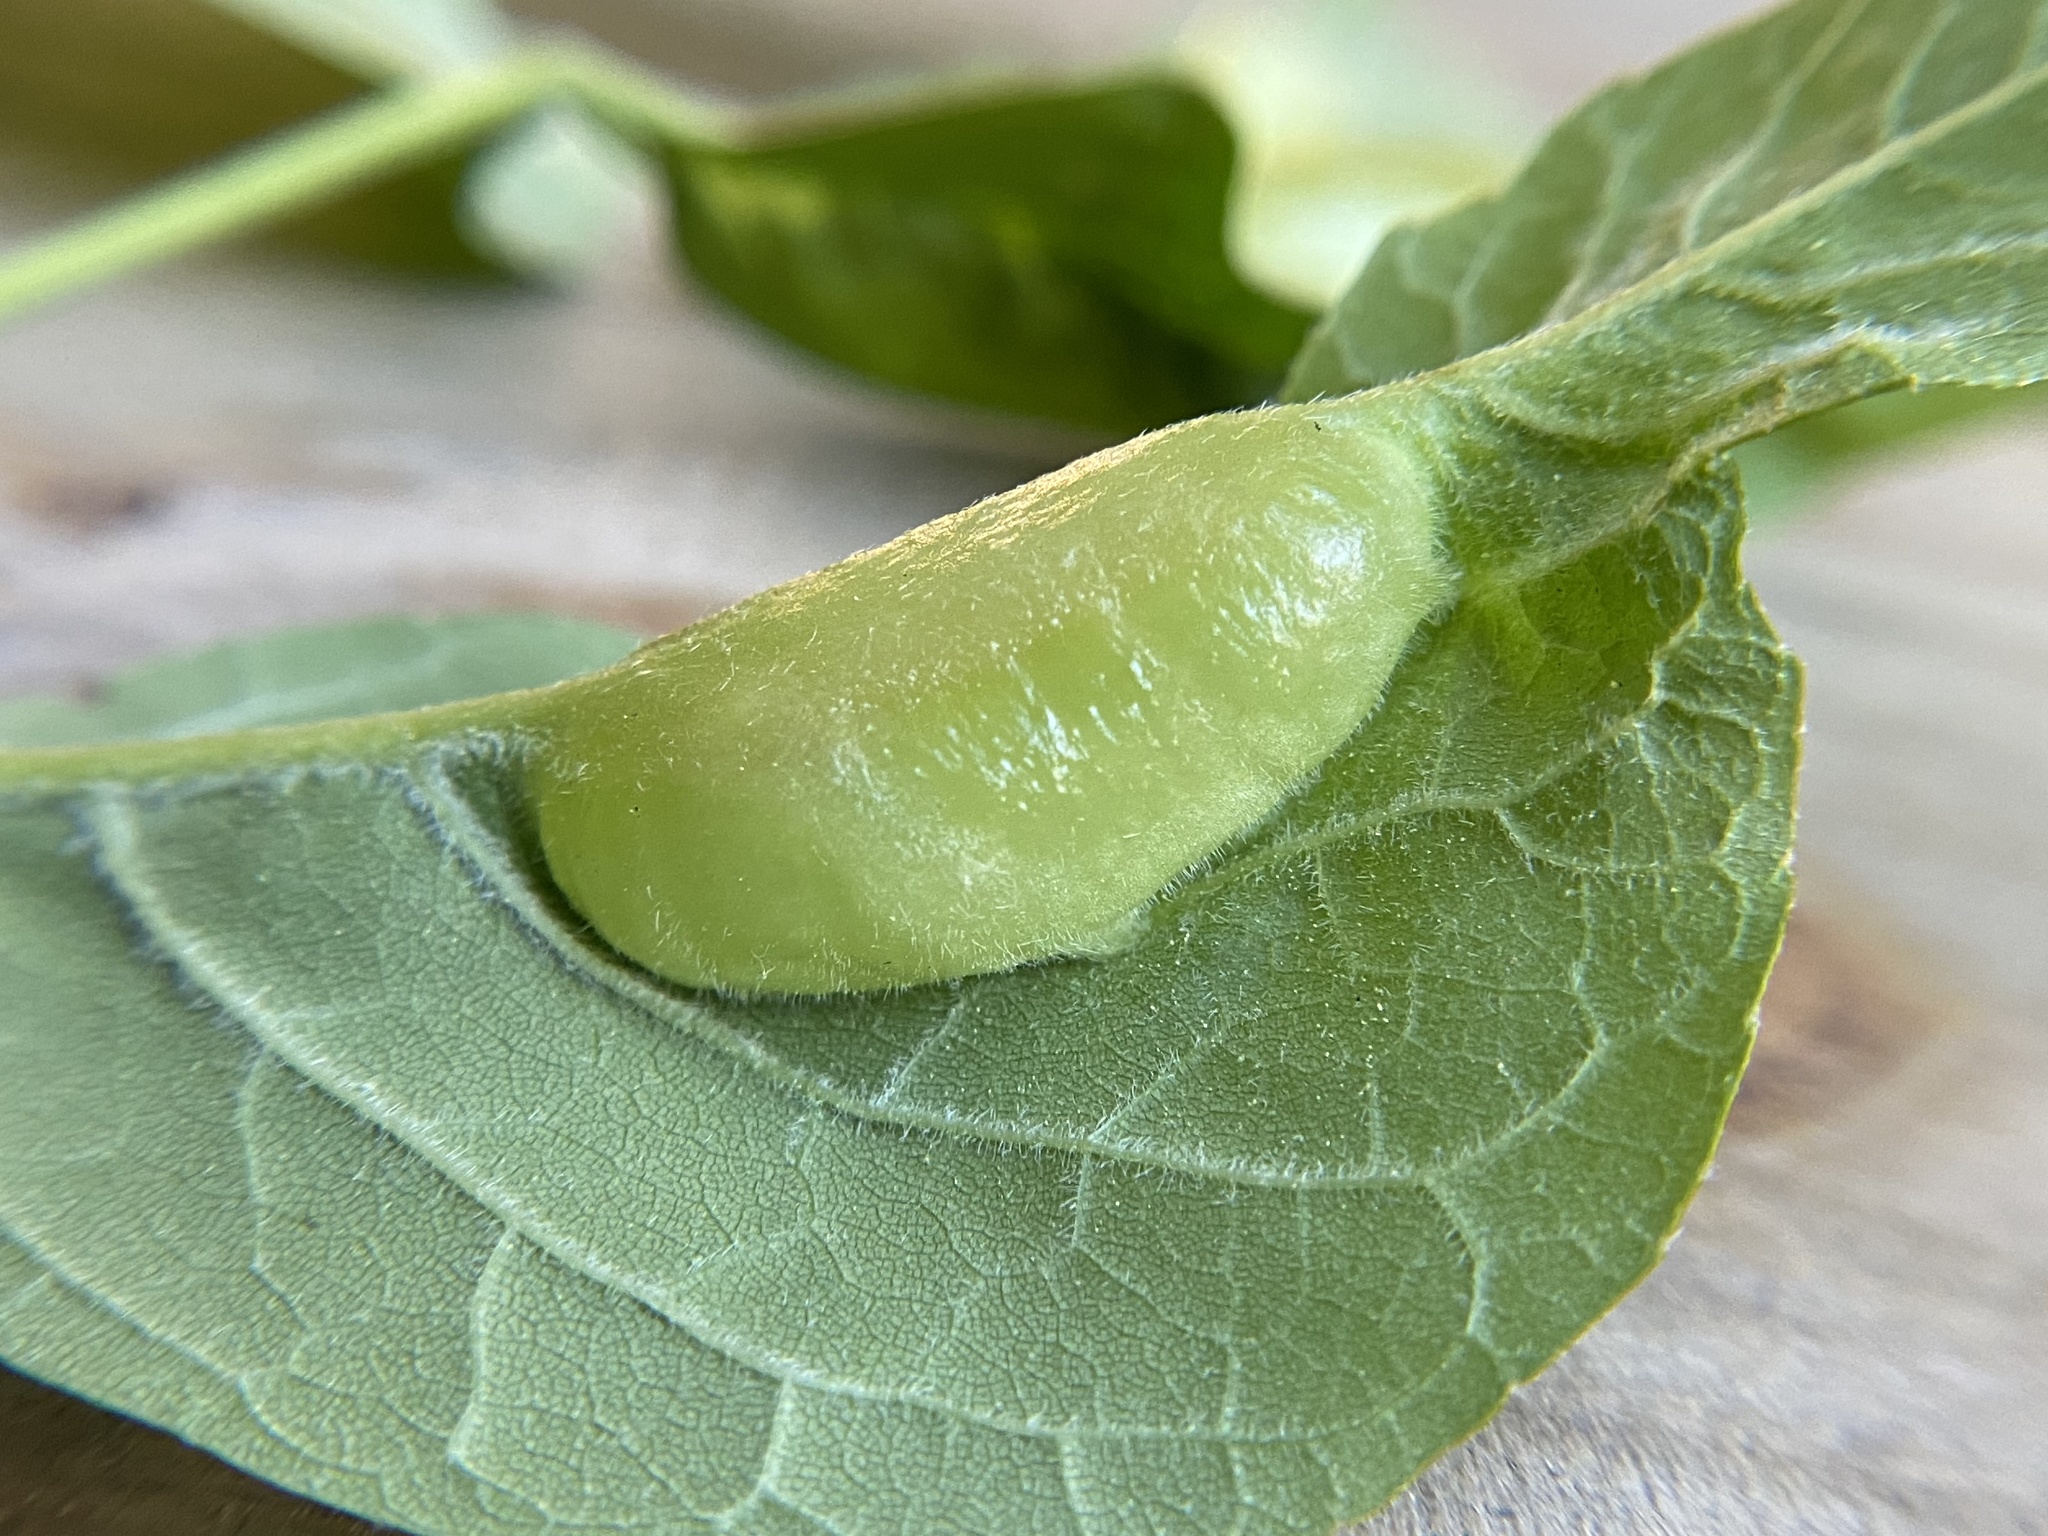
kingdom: Animalia
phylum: Arthropoda
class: Insecta
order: Diptera
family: Cecidomyiidae
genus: Dasineura
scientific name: Dasineura tumidosae
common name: Ash petiole gall midge
